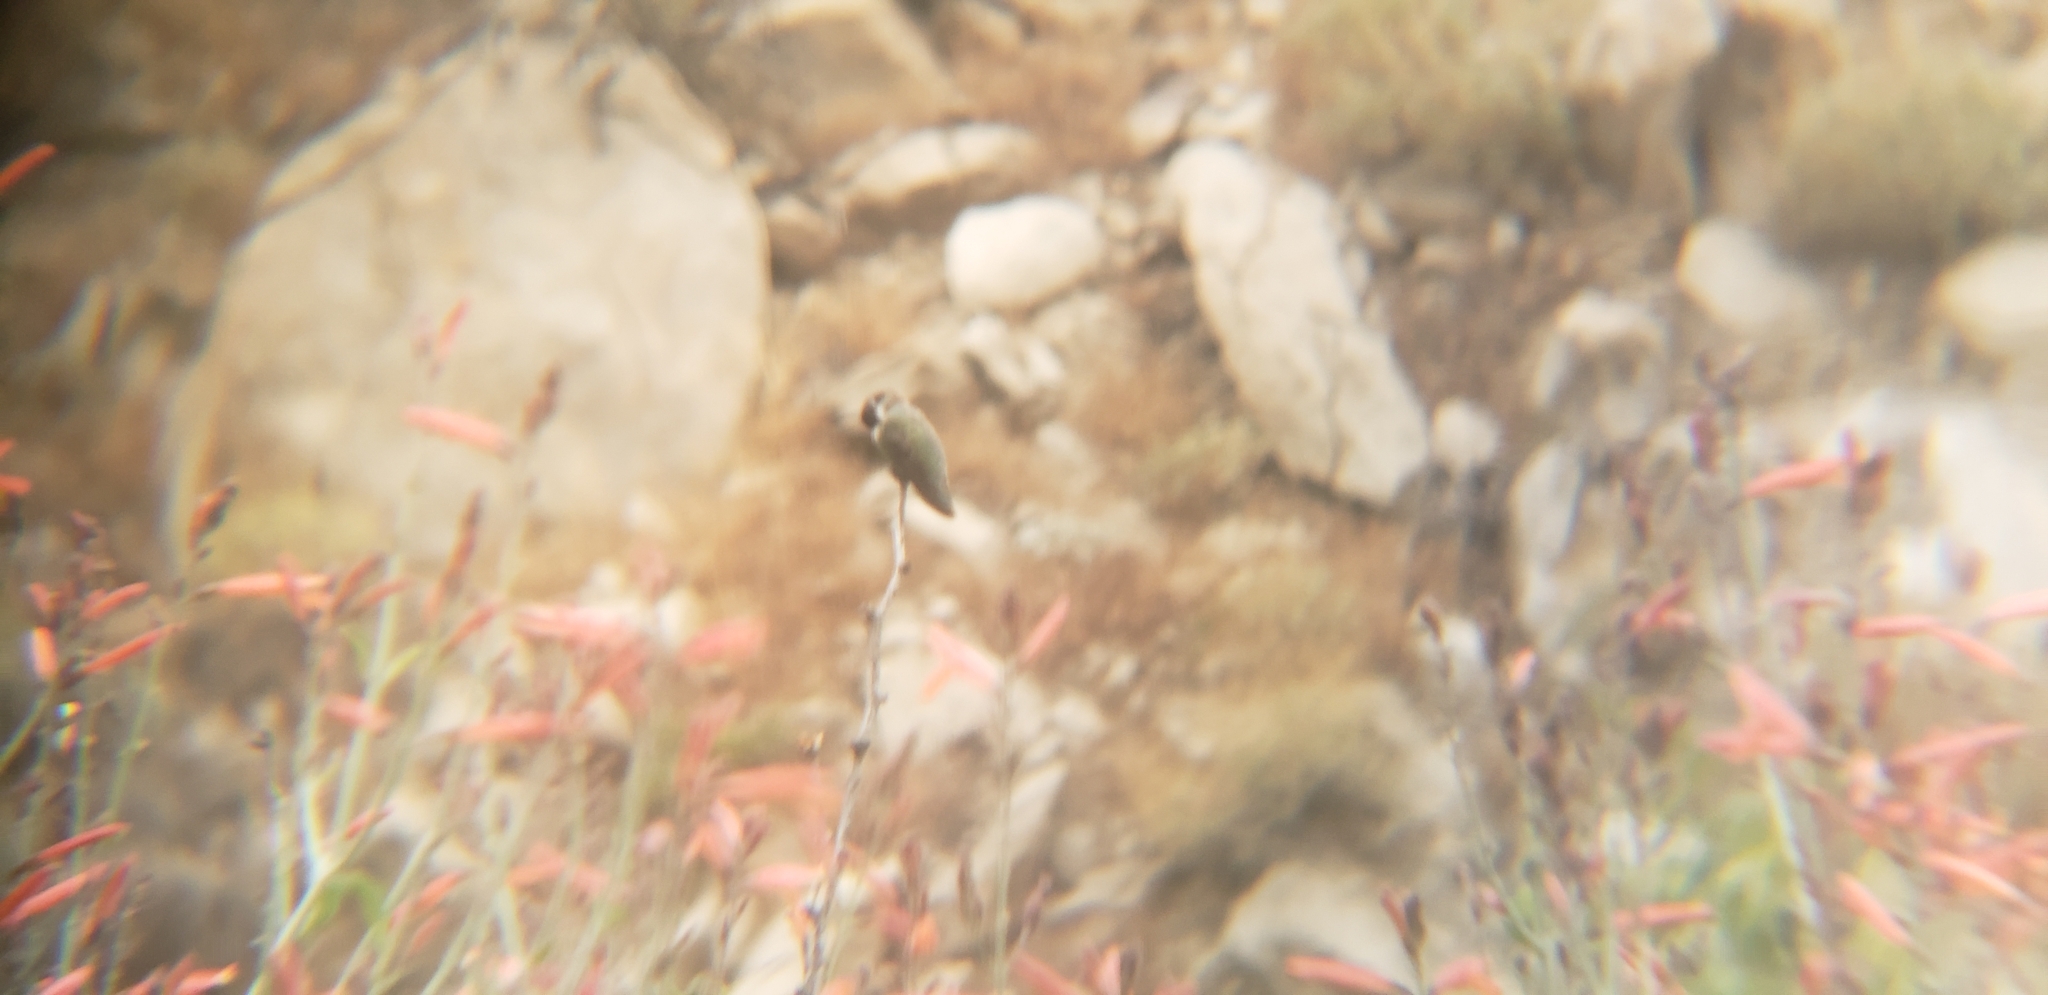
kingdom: Animalia
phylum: Chordata
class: Aves
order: Apodiformes
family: Trochilidae
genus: Calypte
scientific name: Calypte costae
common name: Costa's hummingbird
